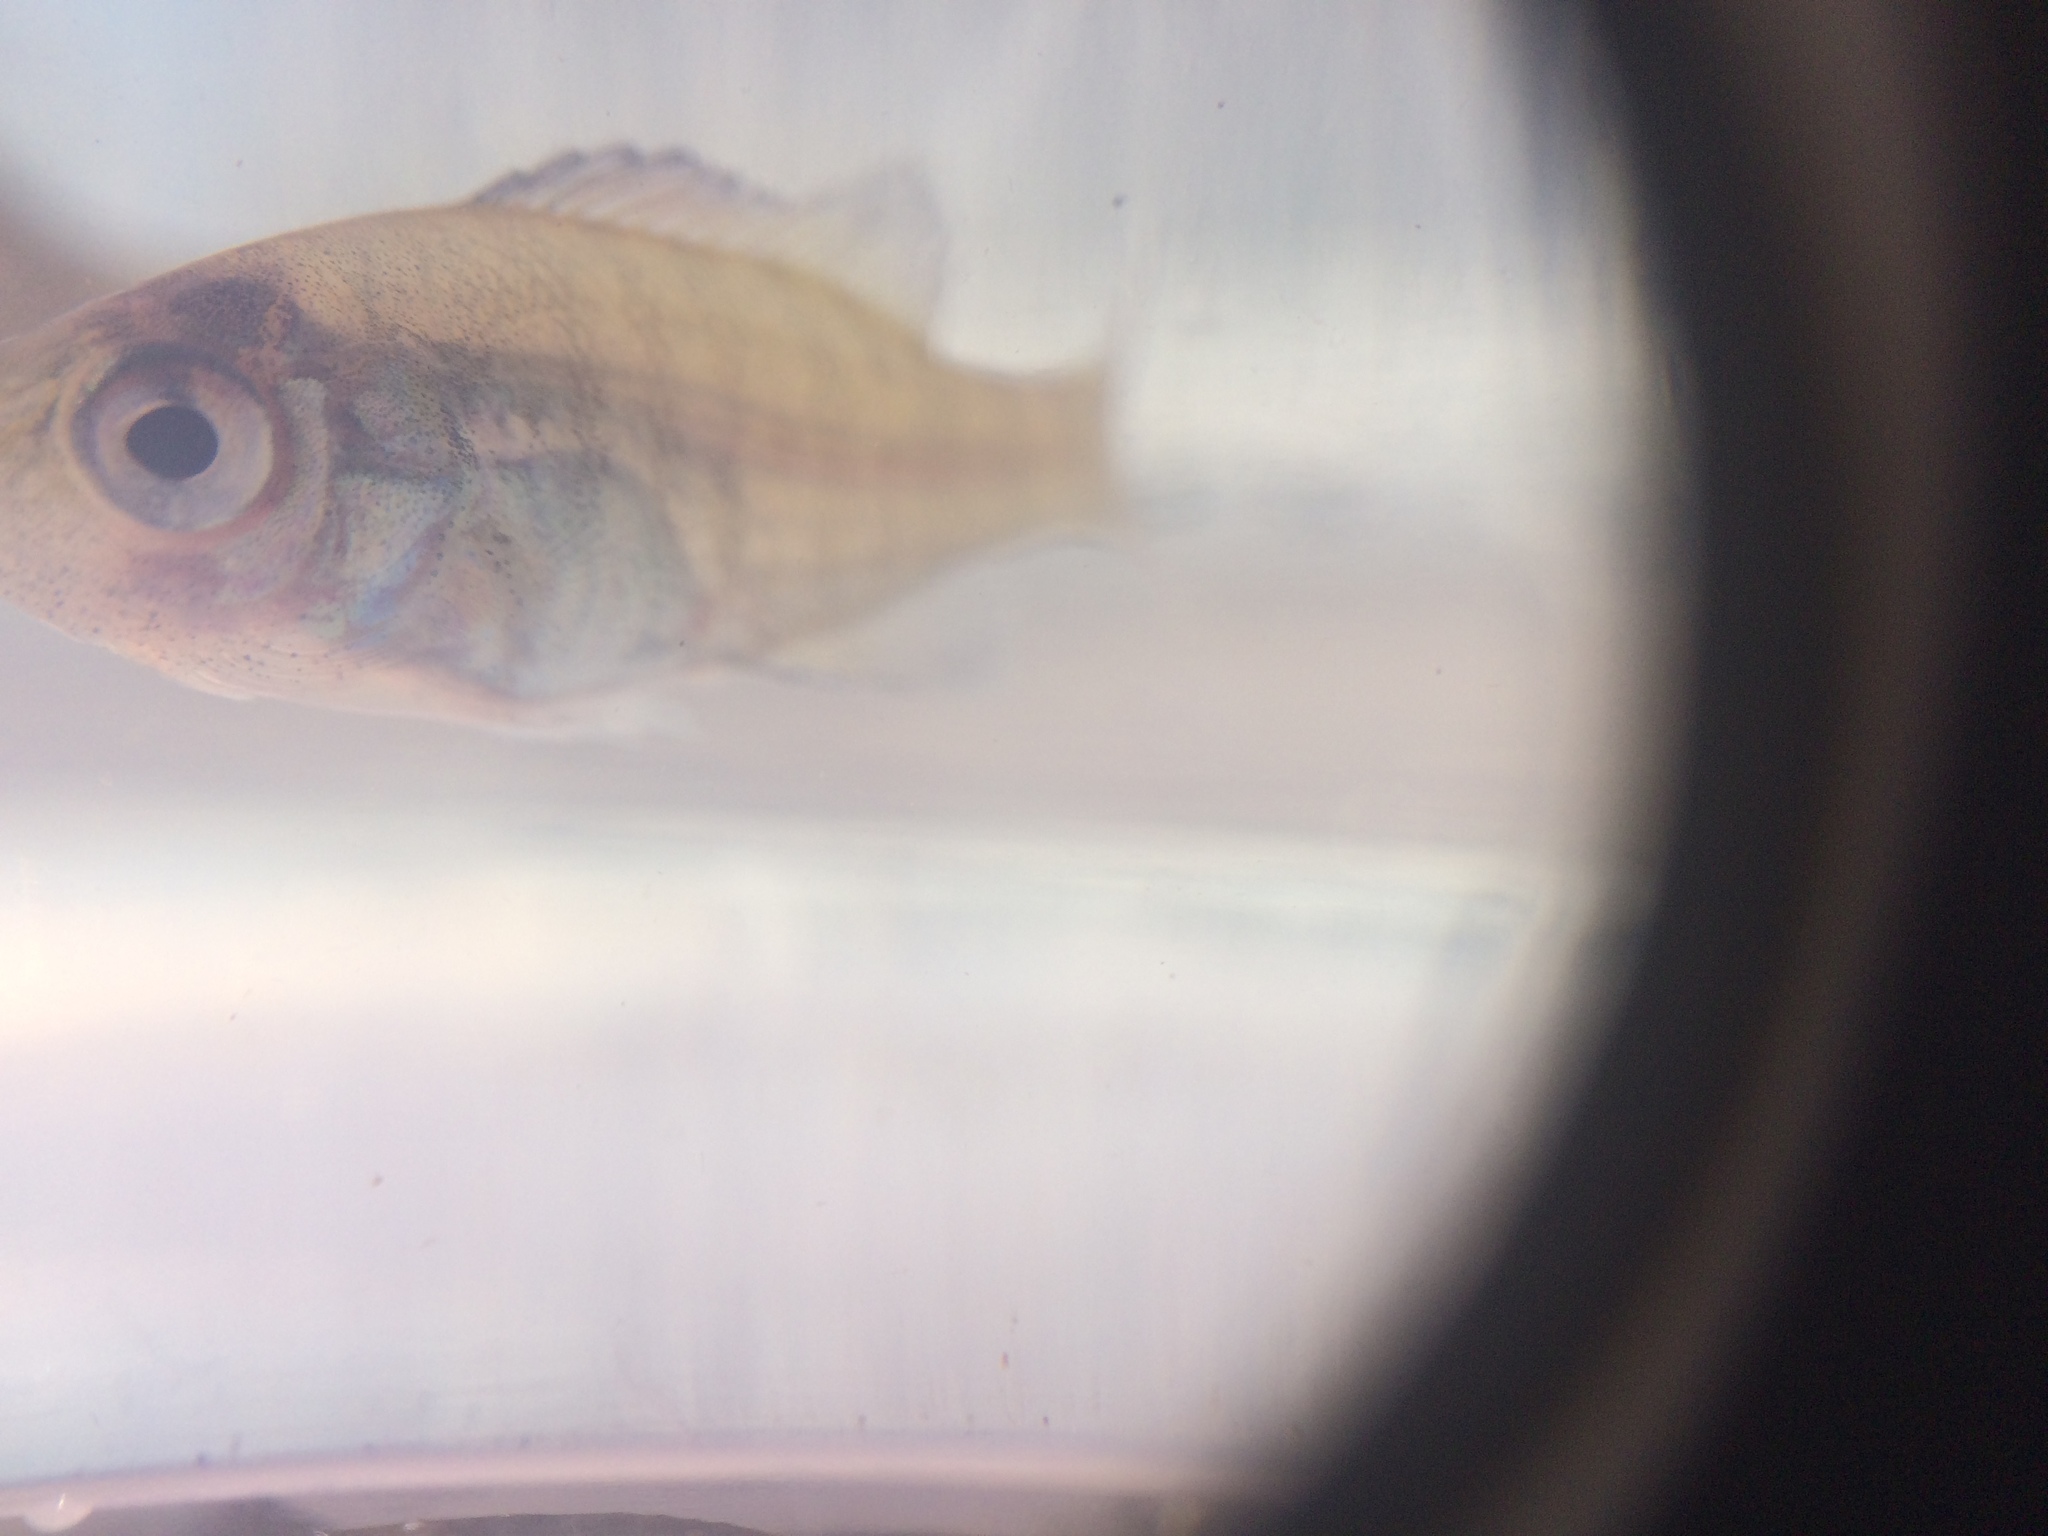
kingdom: Animalia
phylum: Chordata
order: Perciformes
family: Centrarchidae
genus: Lepomis
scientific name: Lepomis macrochirus
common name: Bluegill
